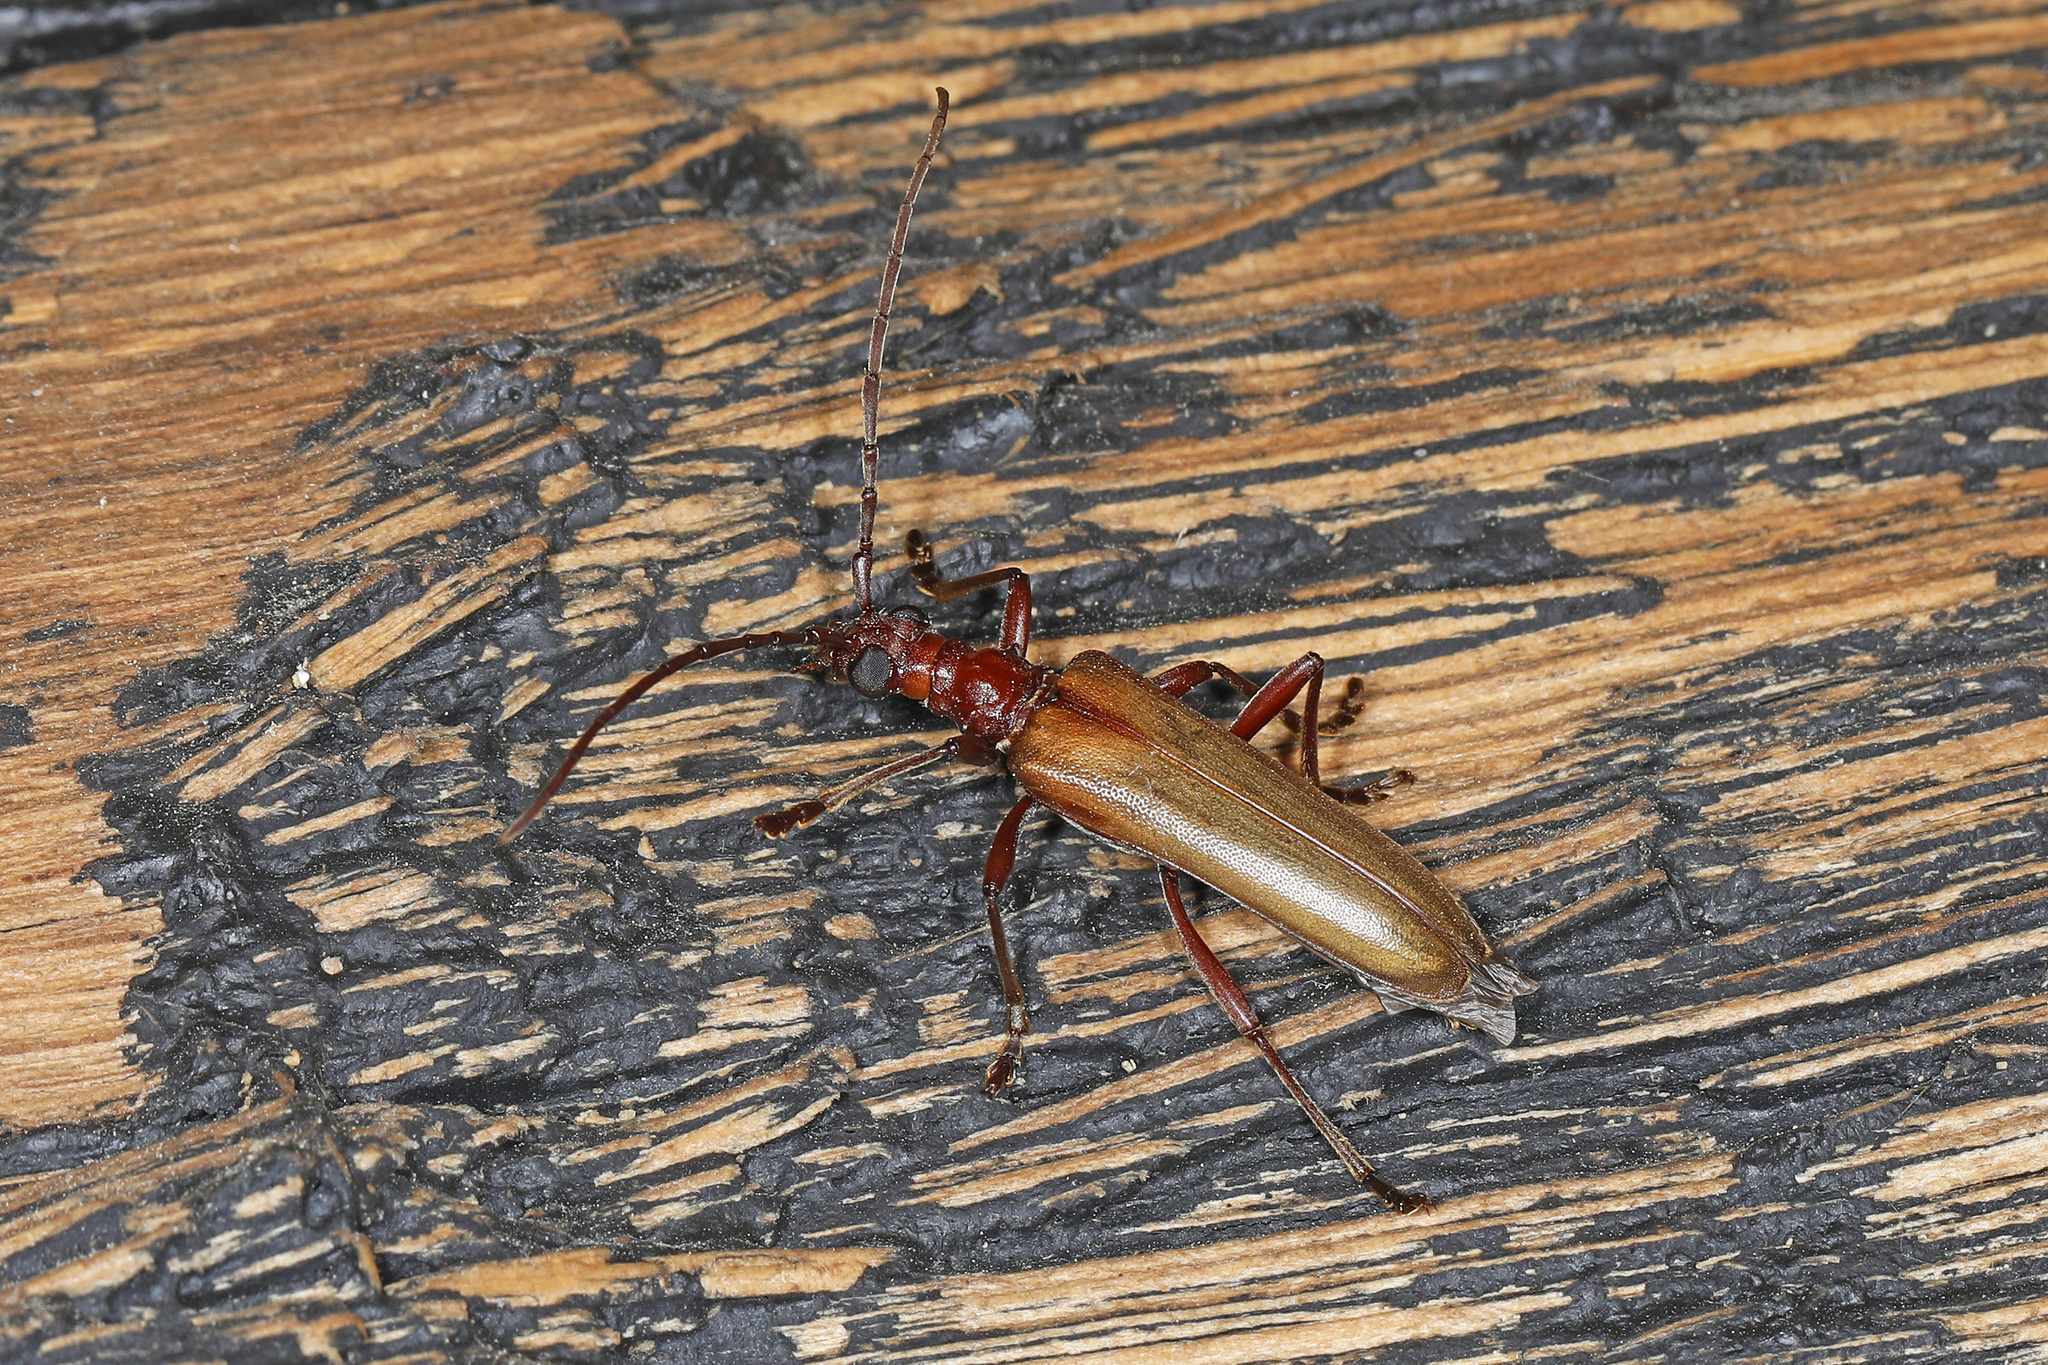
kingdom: Animalia
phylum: Arthropoda
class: Insecta
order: Coleoptera
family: Cerambycidae
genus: Centrodera
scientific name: Centrodera decolorata
